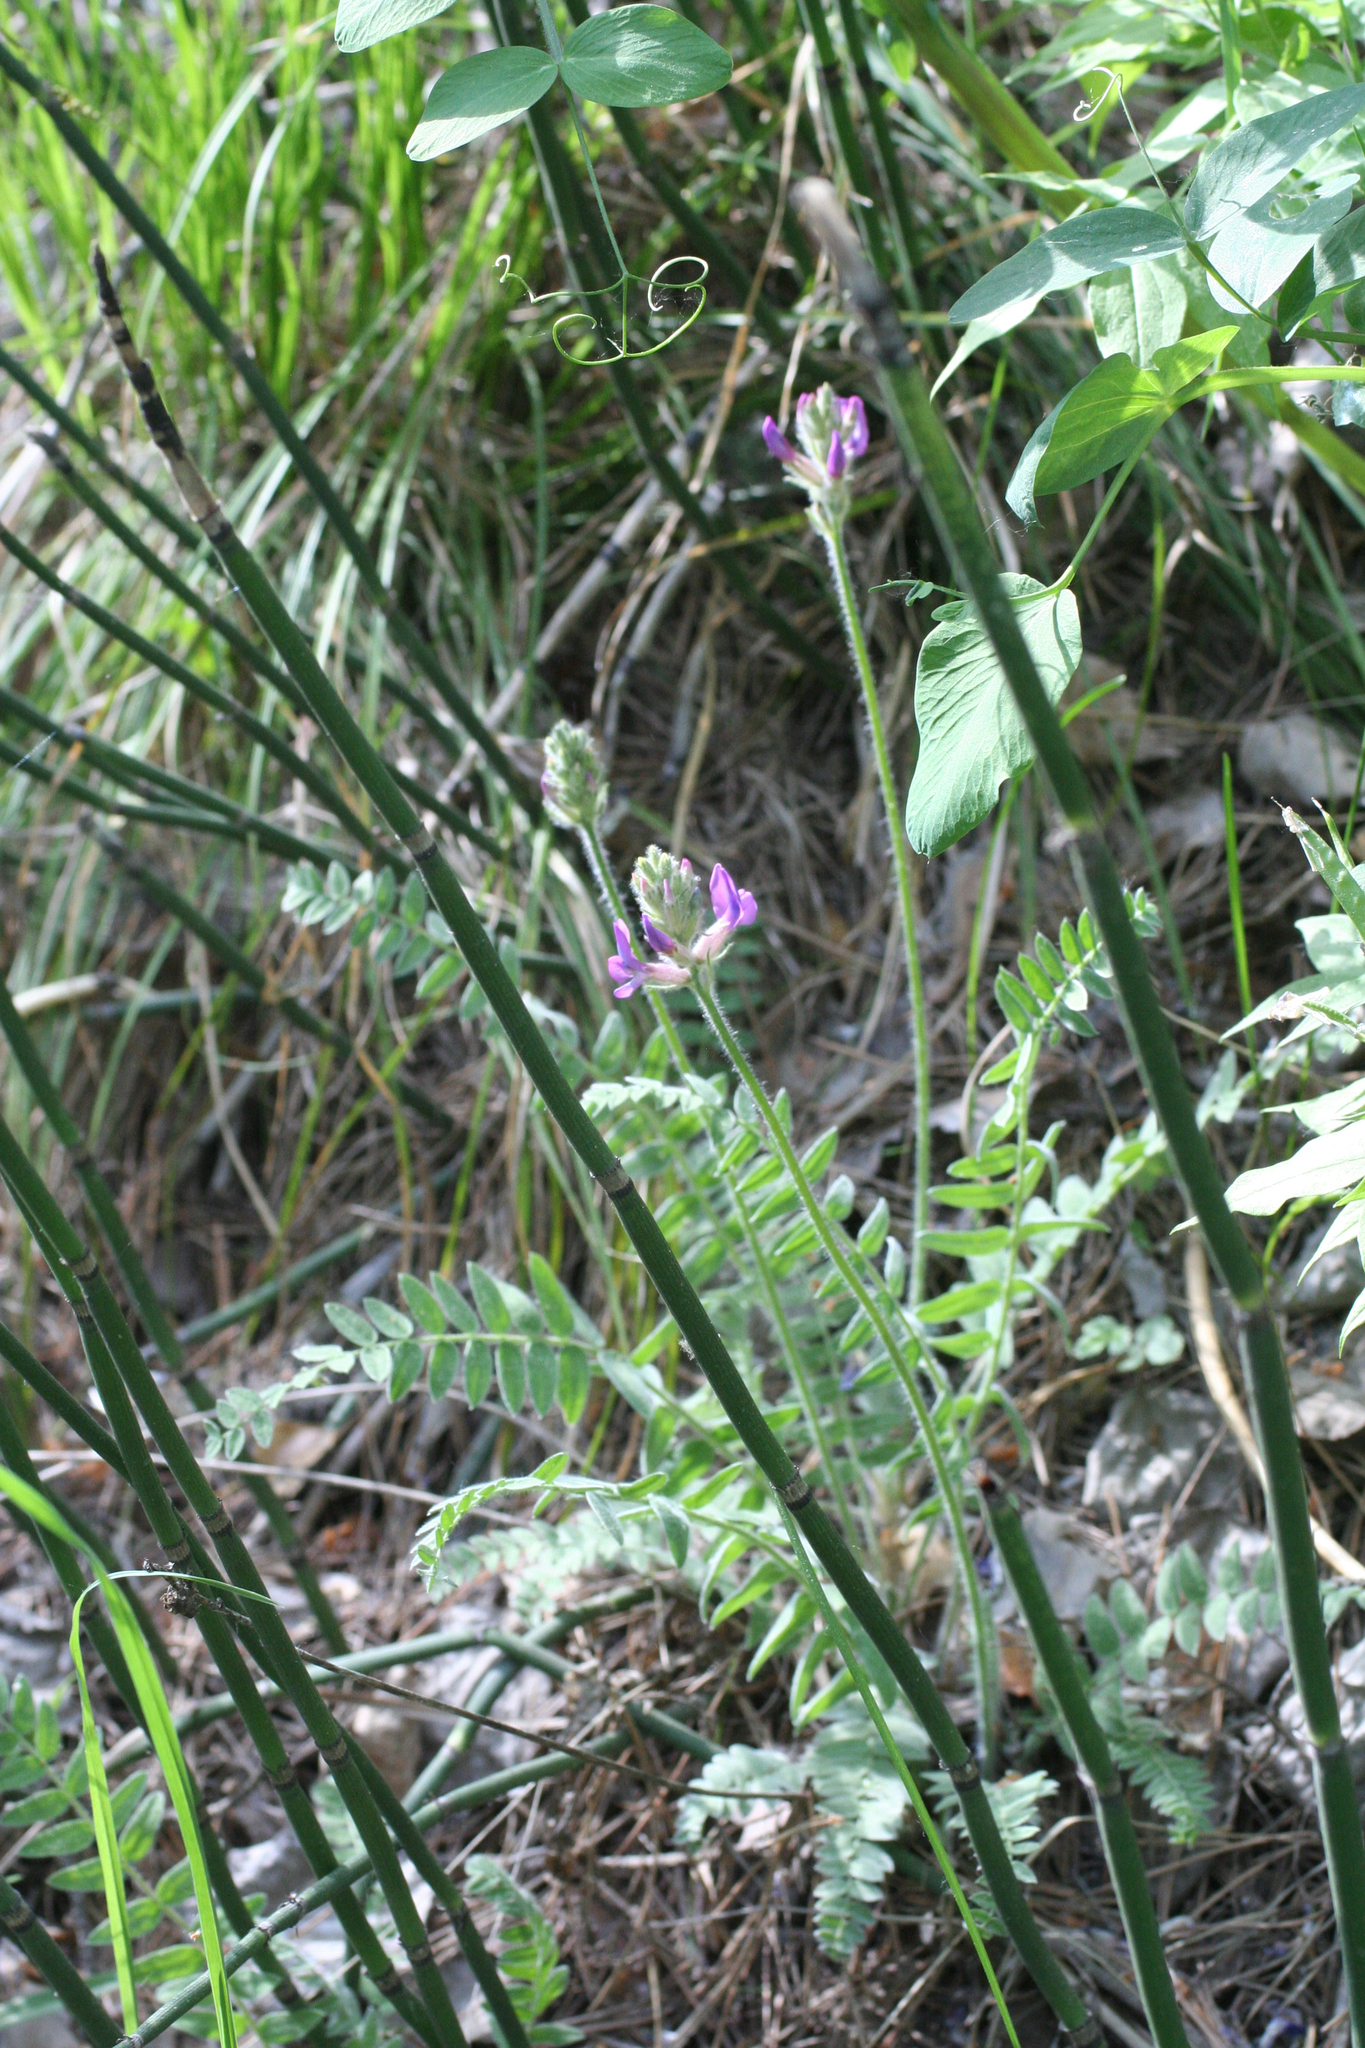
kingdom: Plantae
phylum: Tracheophyta
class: Magnoliopsida
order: Fabales
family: Fabaceae
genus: Oxytropis
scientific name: Oxytropis campanulata
